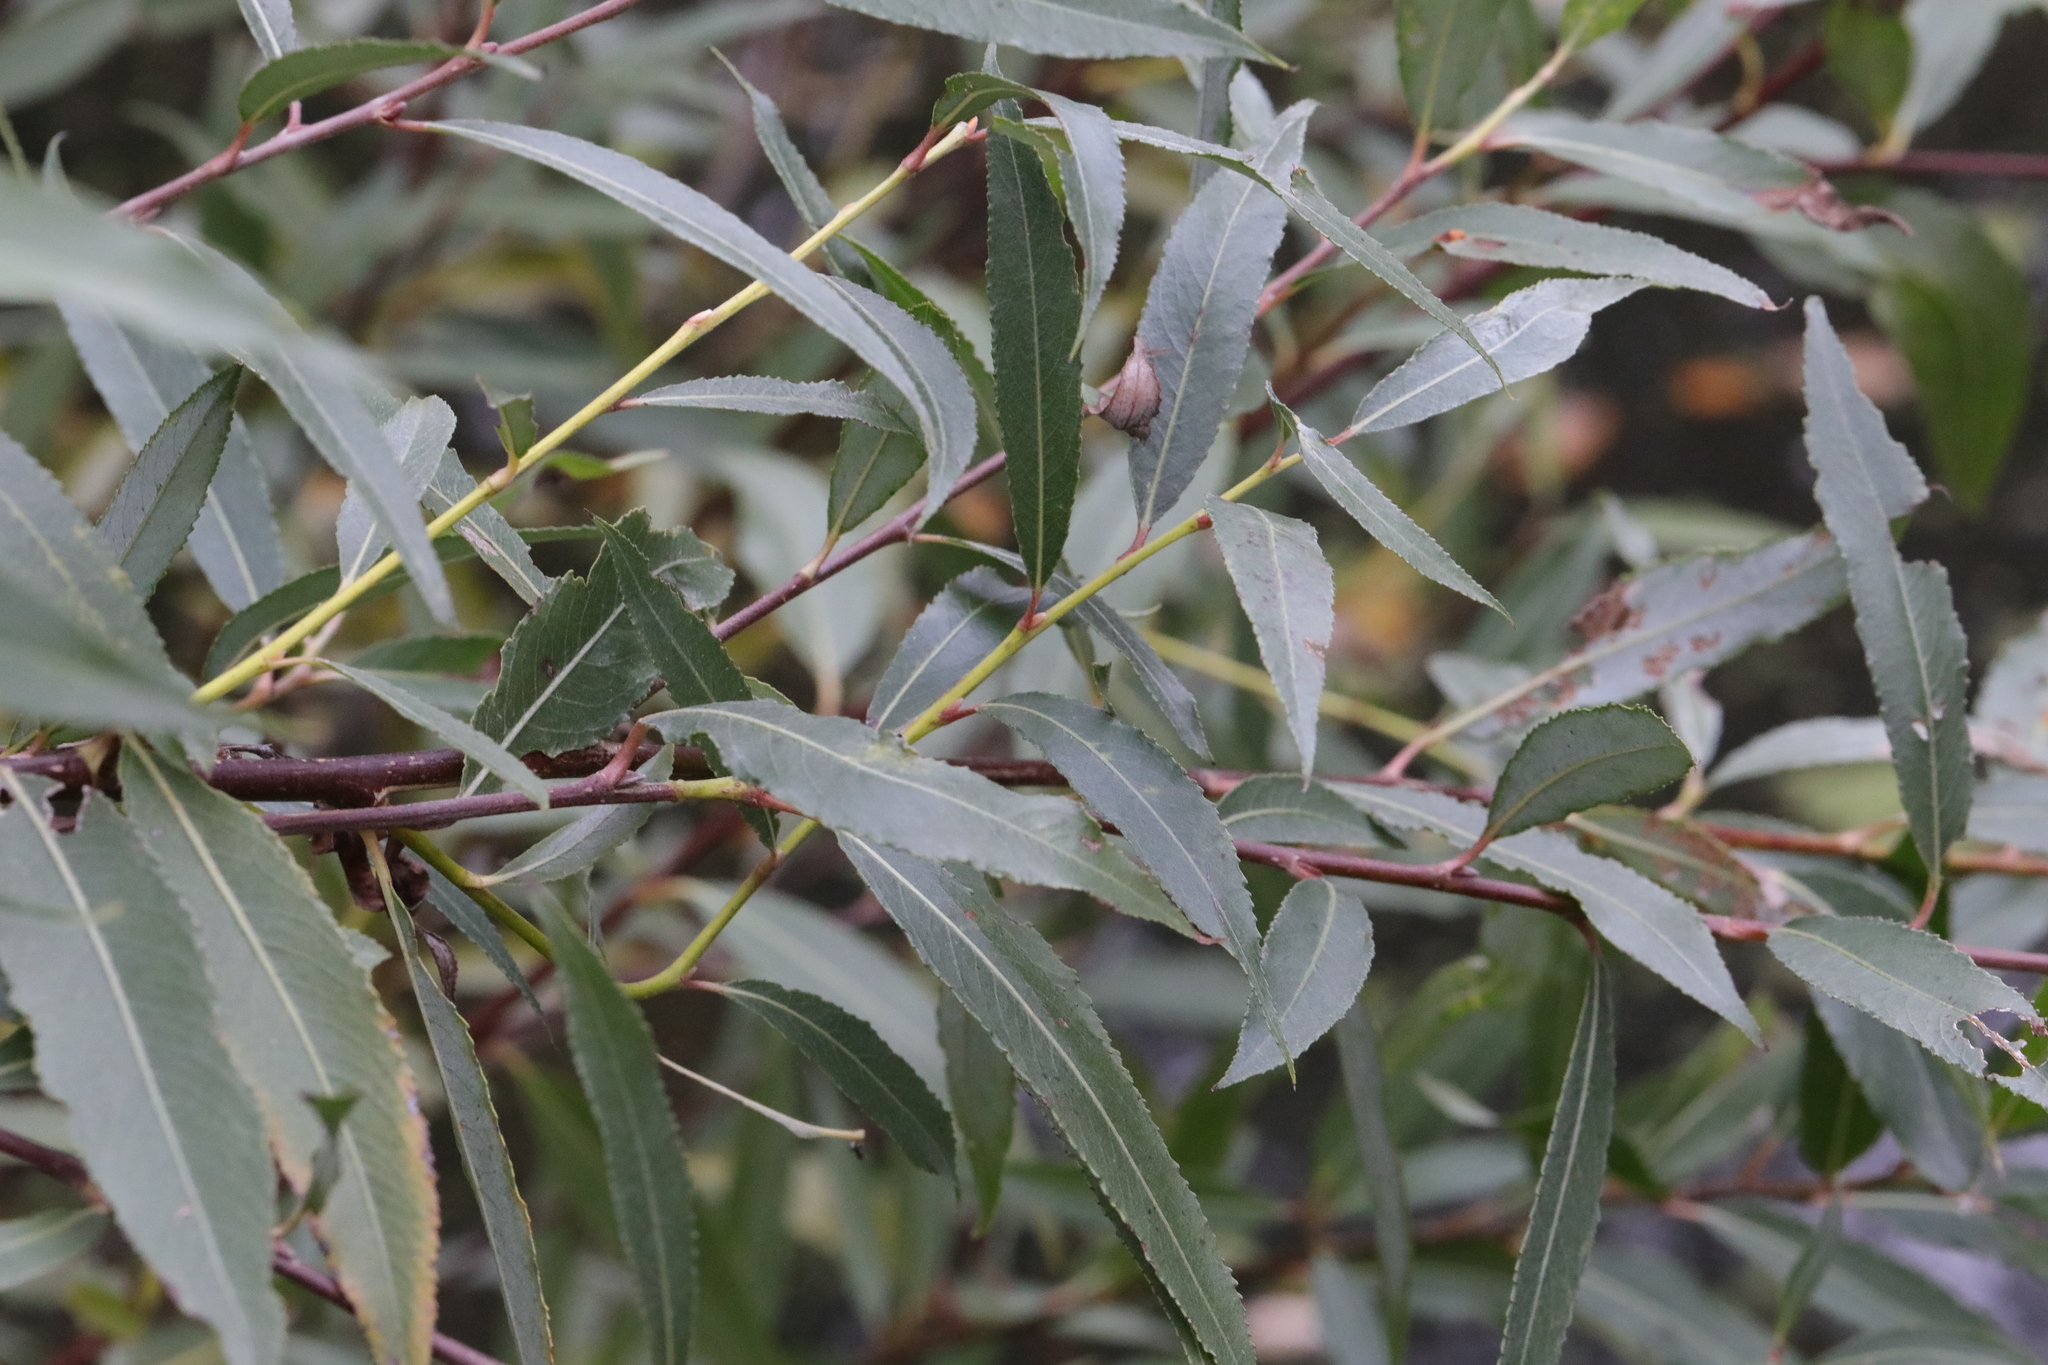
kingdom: Plantae
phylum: Tracheophyta
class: Magnoliopsida
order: Malpighiales
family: Salicaceae
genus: Salix
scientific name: Salix alba
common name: White willow
